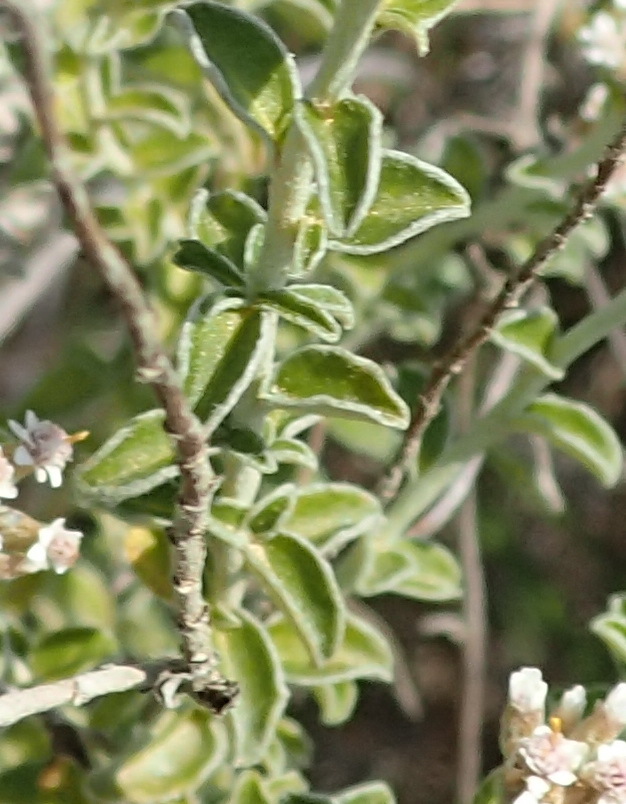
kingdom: Plantae
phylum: Tracheophyta
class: Magnoliopsida
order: Asterales
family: Asteraceae
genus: Plecostachys
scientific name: Plecostachys serpyllifolia
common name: Petite licorice
